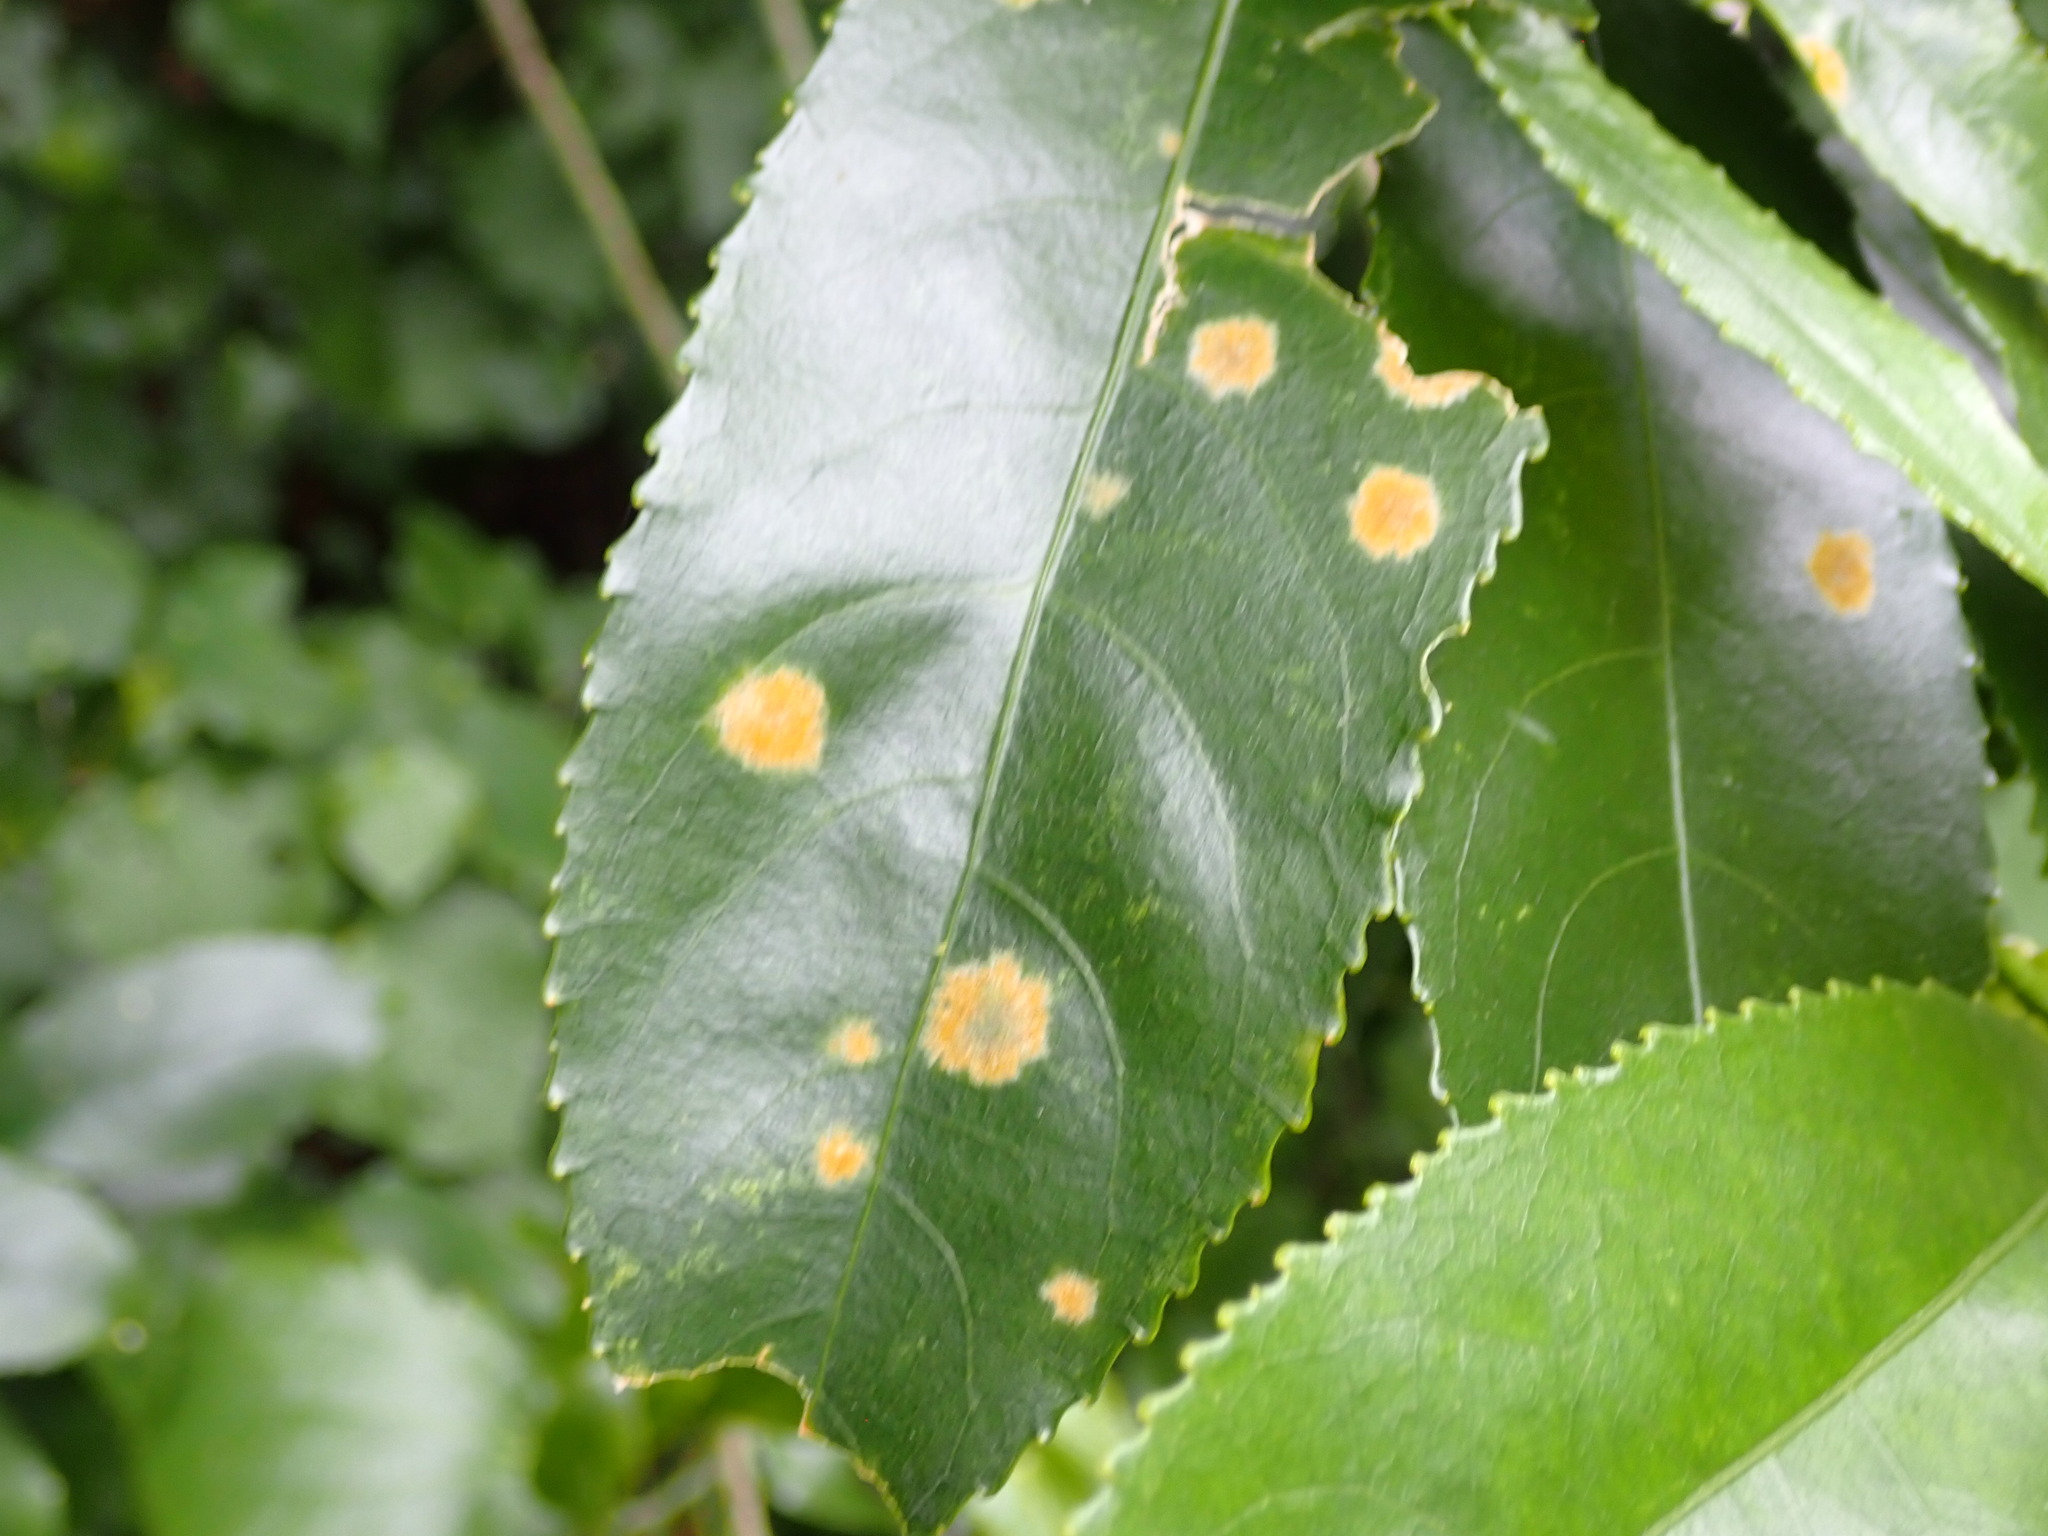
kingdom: Plantae
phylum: Chlorophyta
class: Ulvophyceae
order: Trentepohliales
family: Trentepohliaceae
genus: Cephaleuros
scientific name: Cephaleuros
